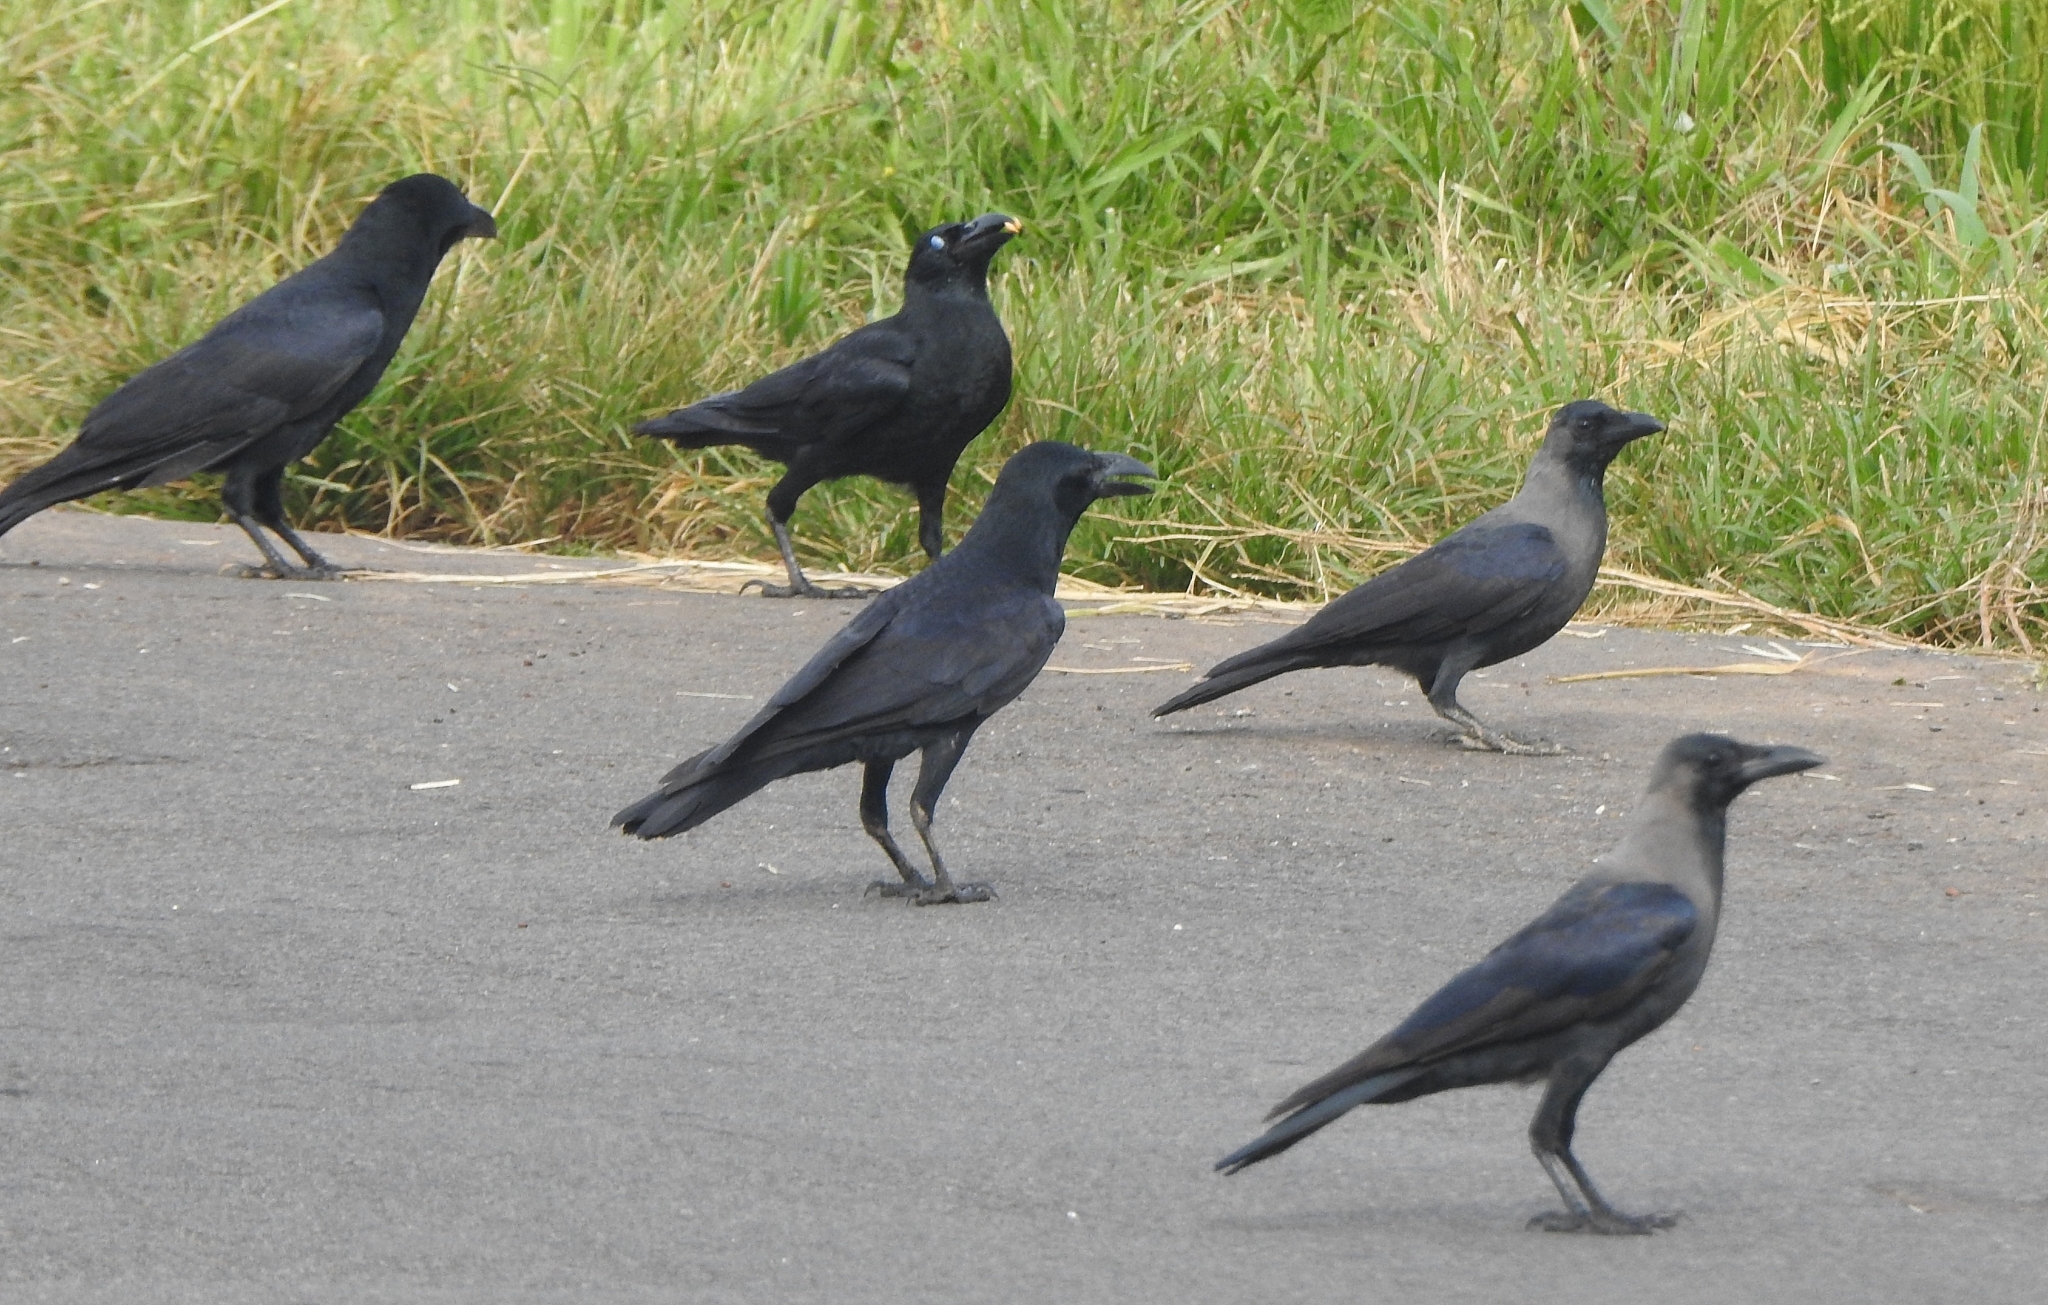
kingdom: Animalia
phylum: Chordata
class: Aves
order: Passeriformes
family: Corvidae
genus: Corvus
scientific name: Corvus splendens
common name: House crow
